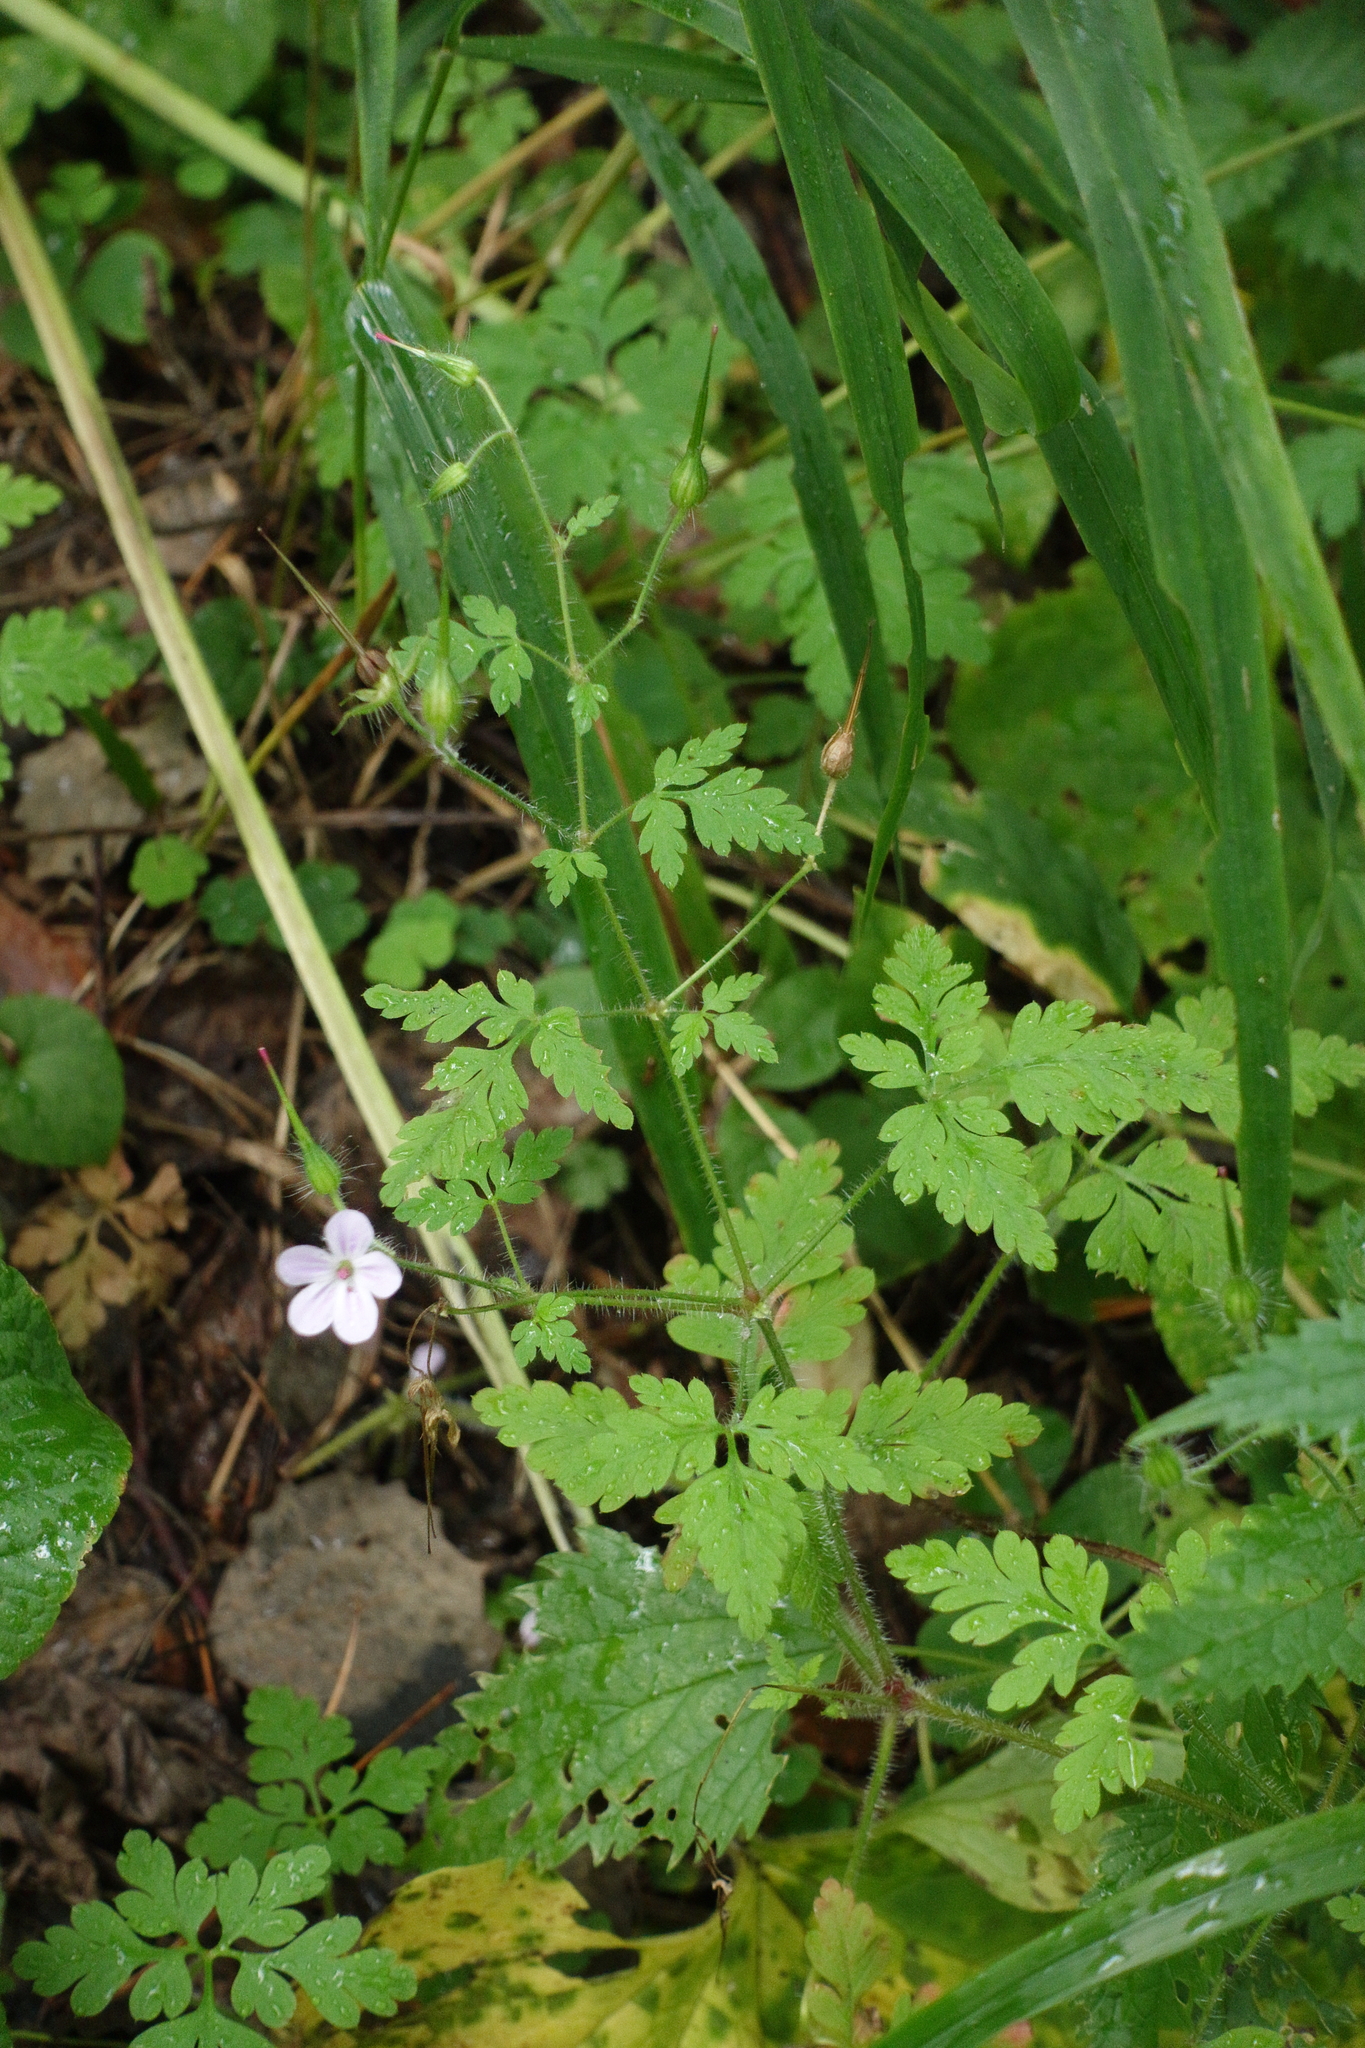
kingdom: Plantae
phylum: Tracheophyta
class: Magnoliopsida
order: Geraniales
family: Geraniaceae
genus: Geranium
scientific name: Geranium robertianum
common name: Herb-robert
